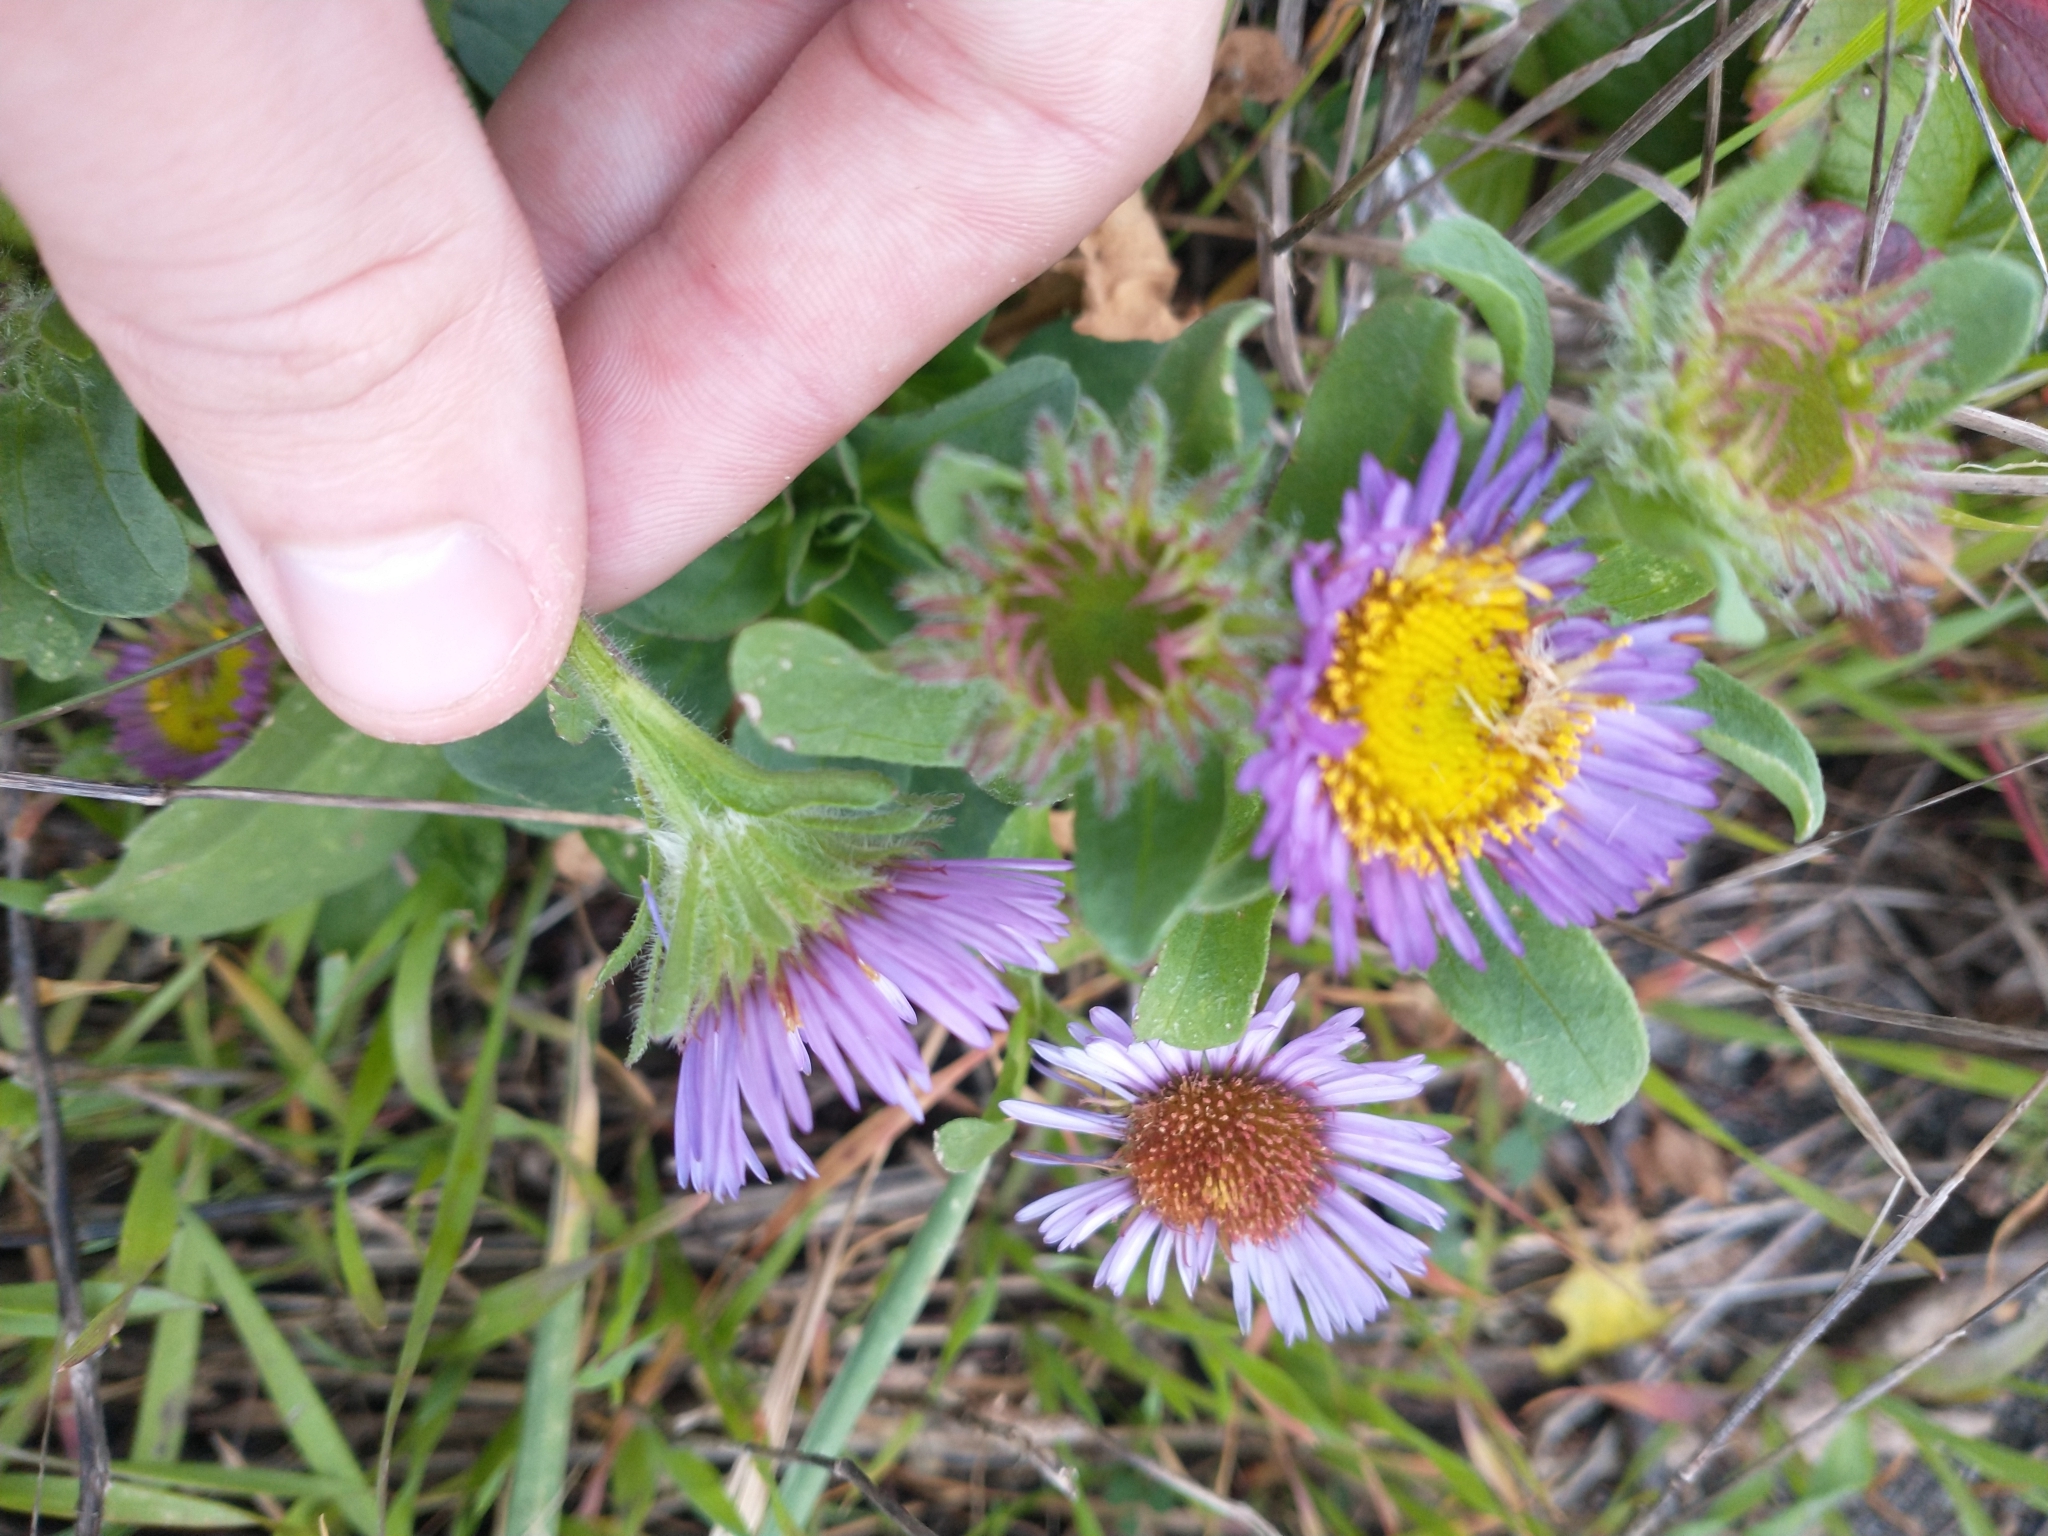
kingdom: Plantae
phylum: Tracheophyta
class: Magnoliopsida
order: Asterales
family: Asteraceae
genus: Erigeron
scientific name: Erigeron glaucus
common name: Seaside daisy
